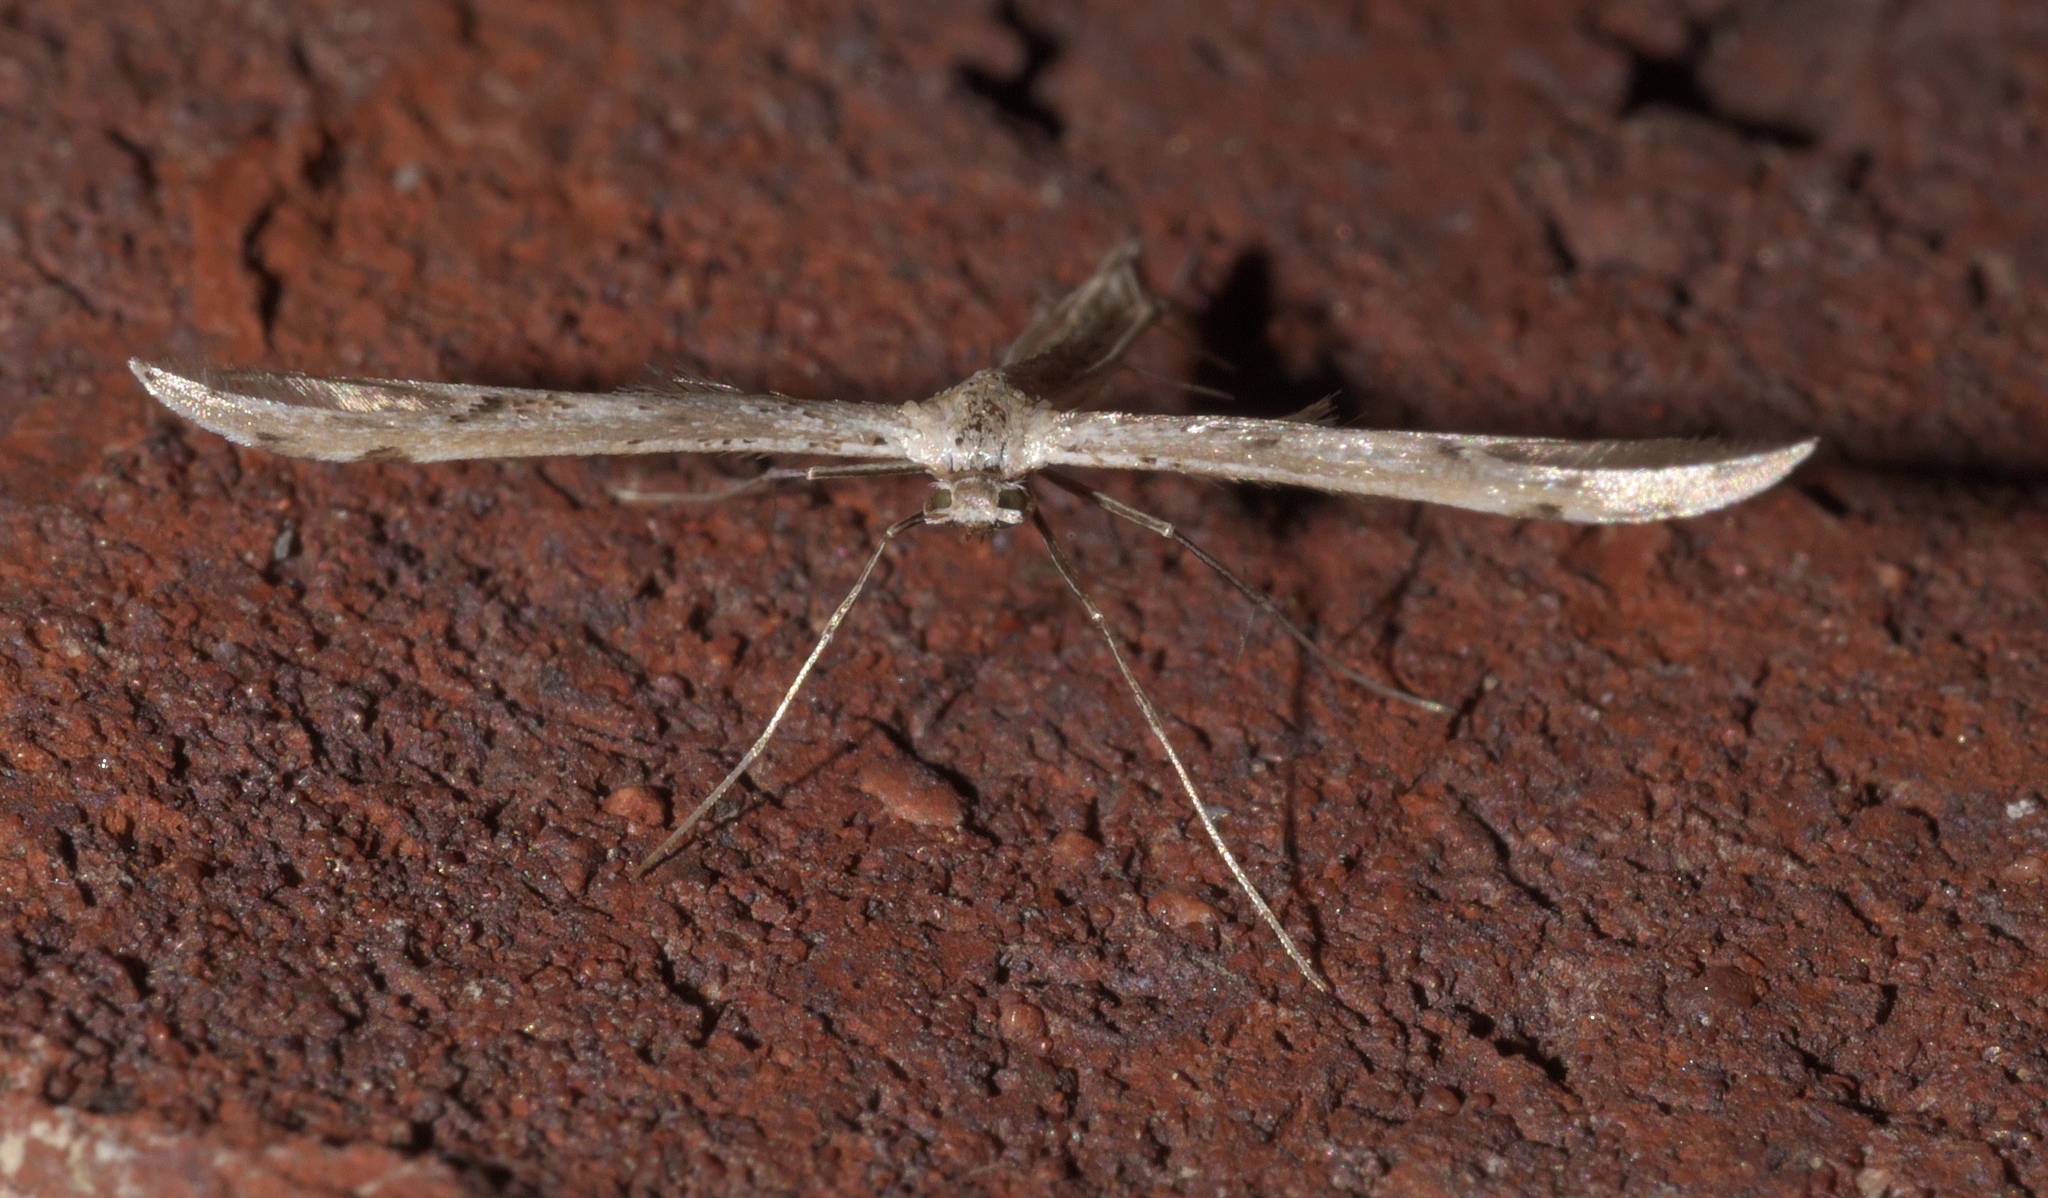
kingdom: Animalia
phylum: Arthropoda
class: Insecta
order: Lepidoptera
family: Pterophoridae
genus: Pselnophorus
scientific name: Pselnophorus belfragei
